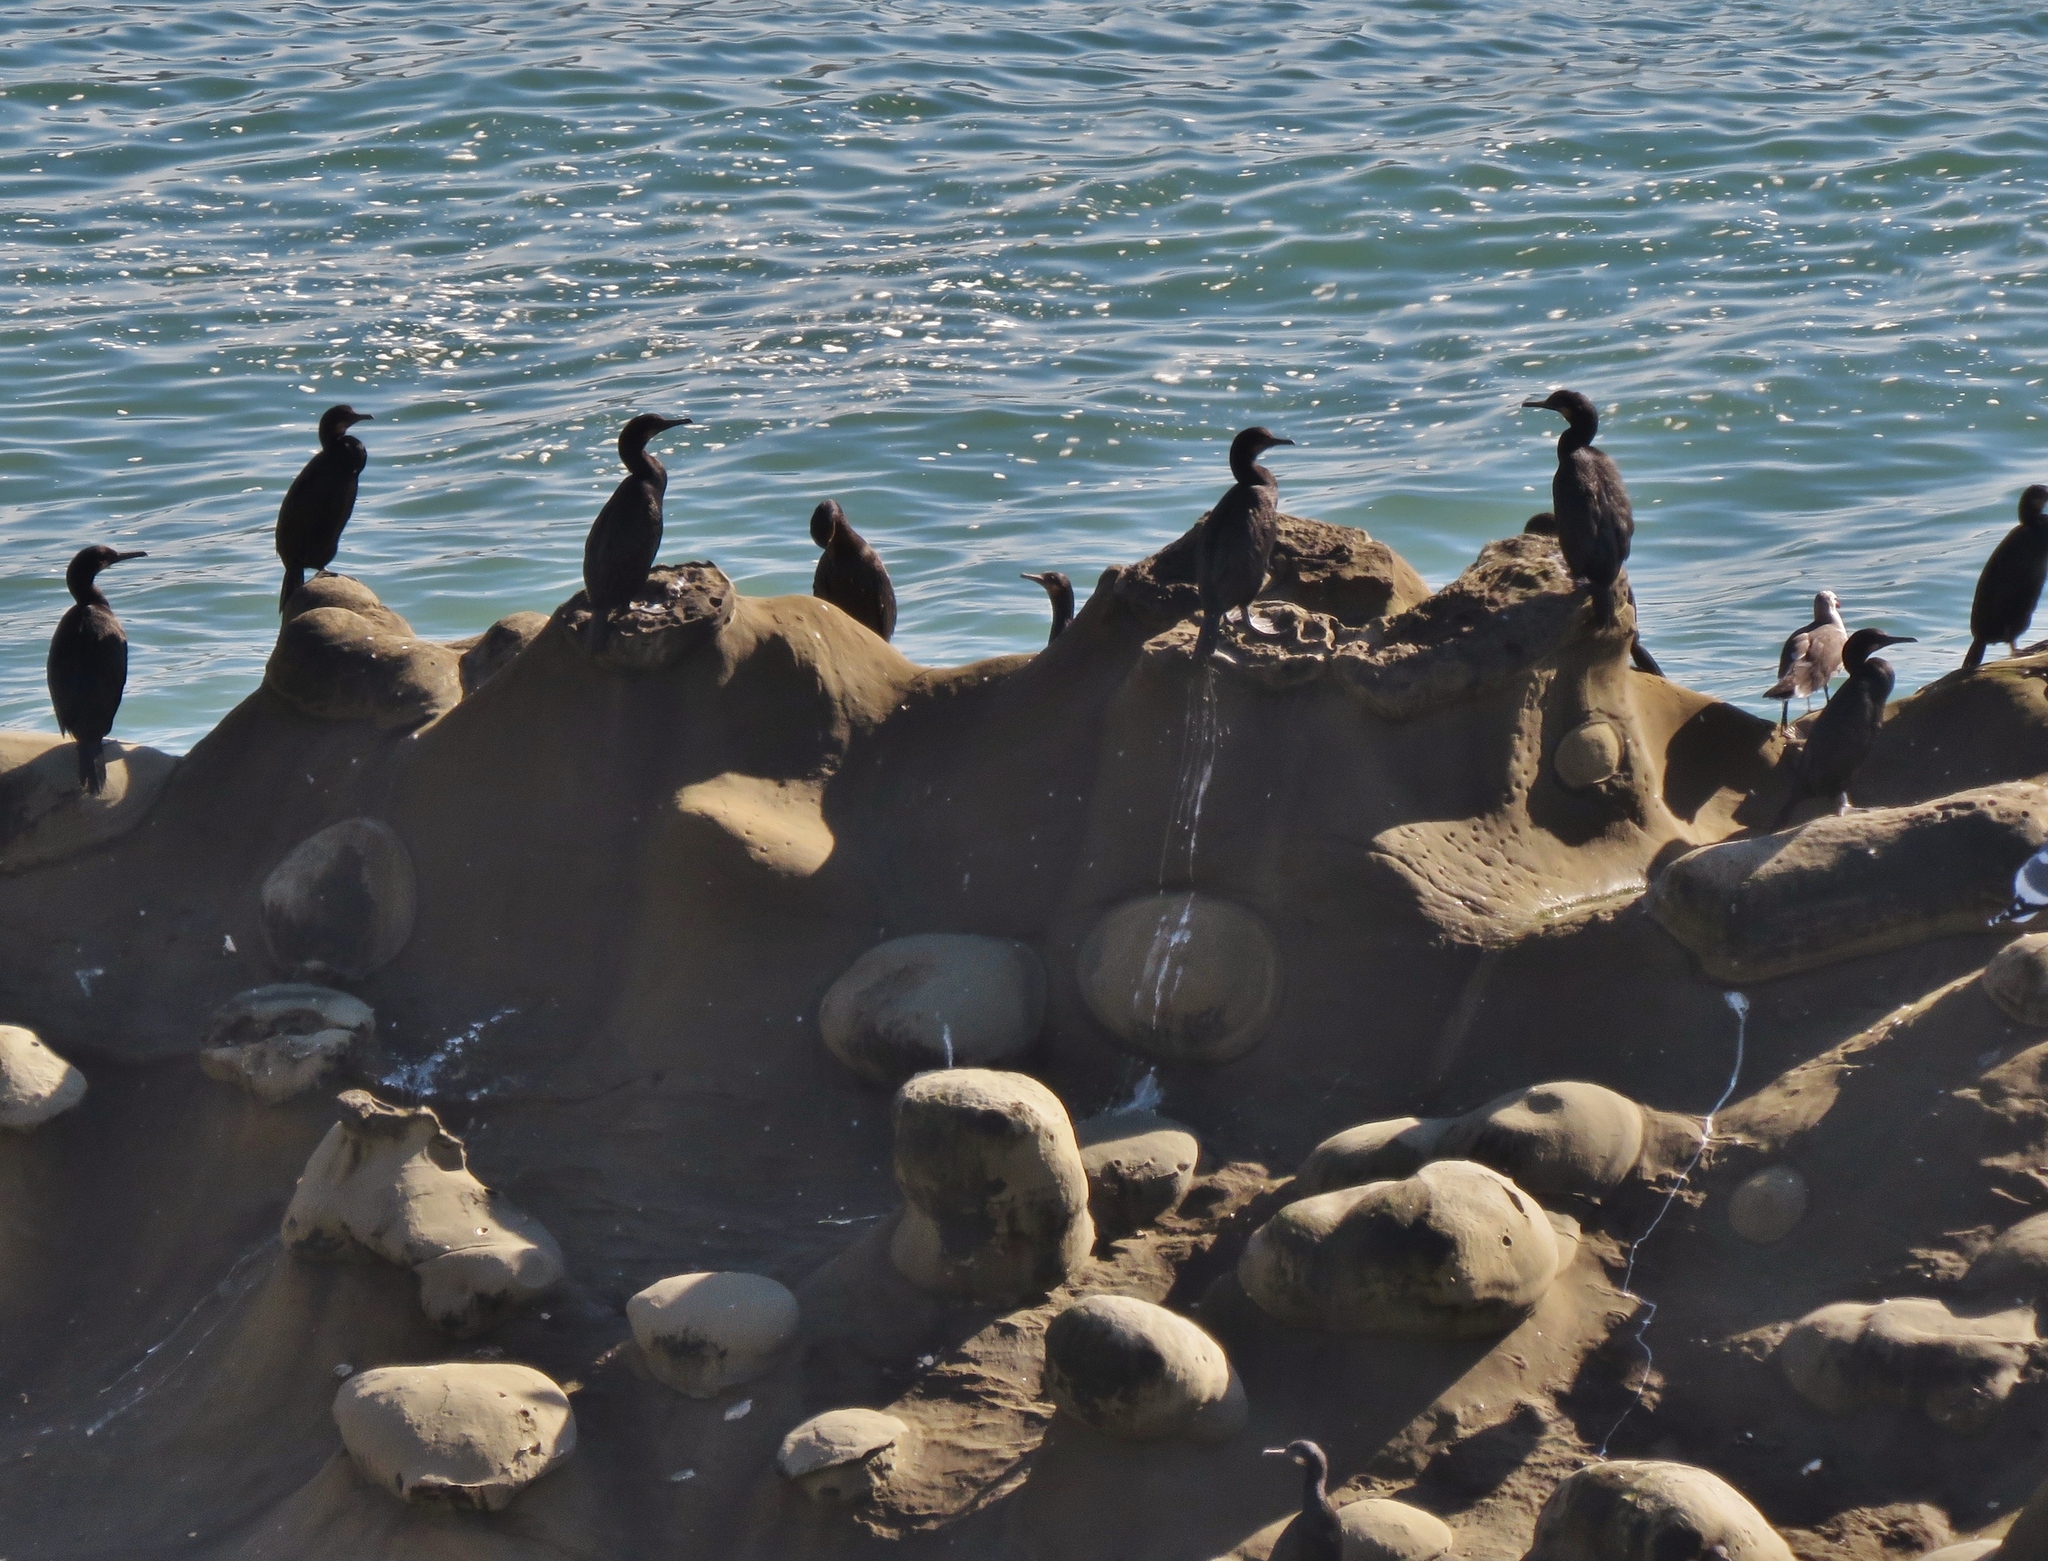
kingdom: Animalia
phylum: Chordata
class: Aves
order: Suliformes
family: Phalacrocoracidae
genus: Urile
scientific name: Urile penicillatus
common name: Brandt's cormorant
